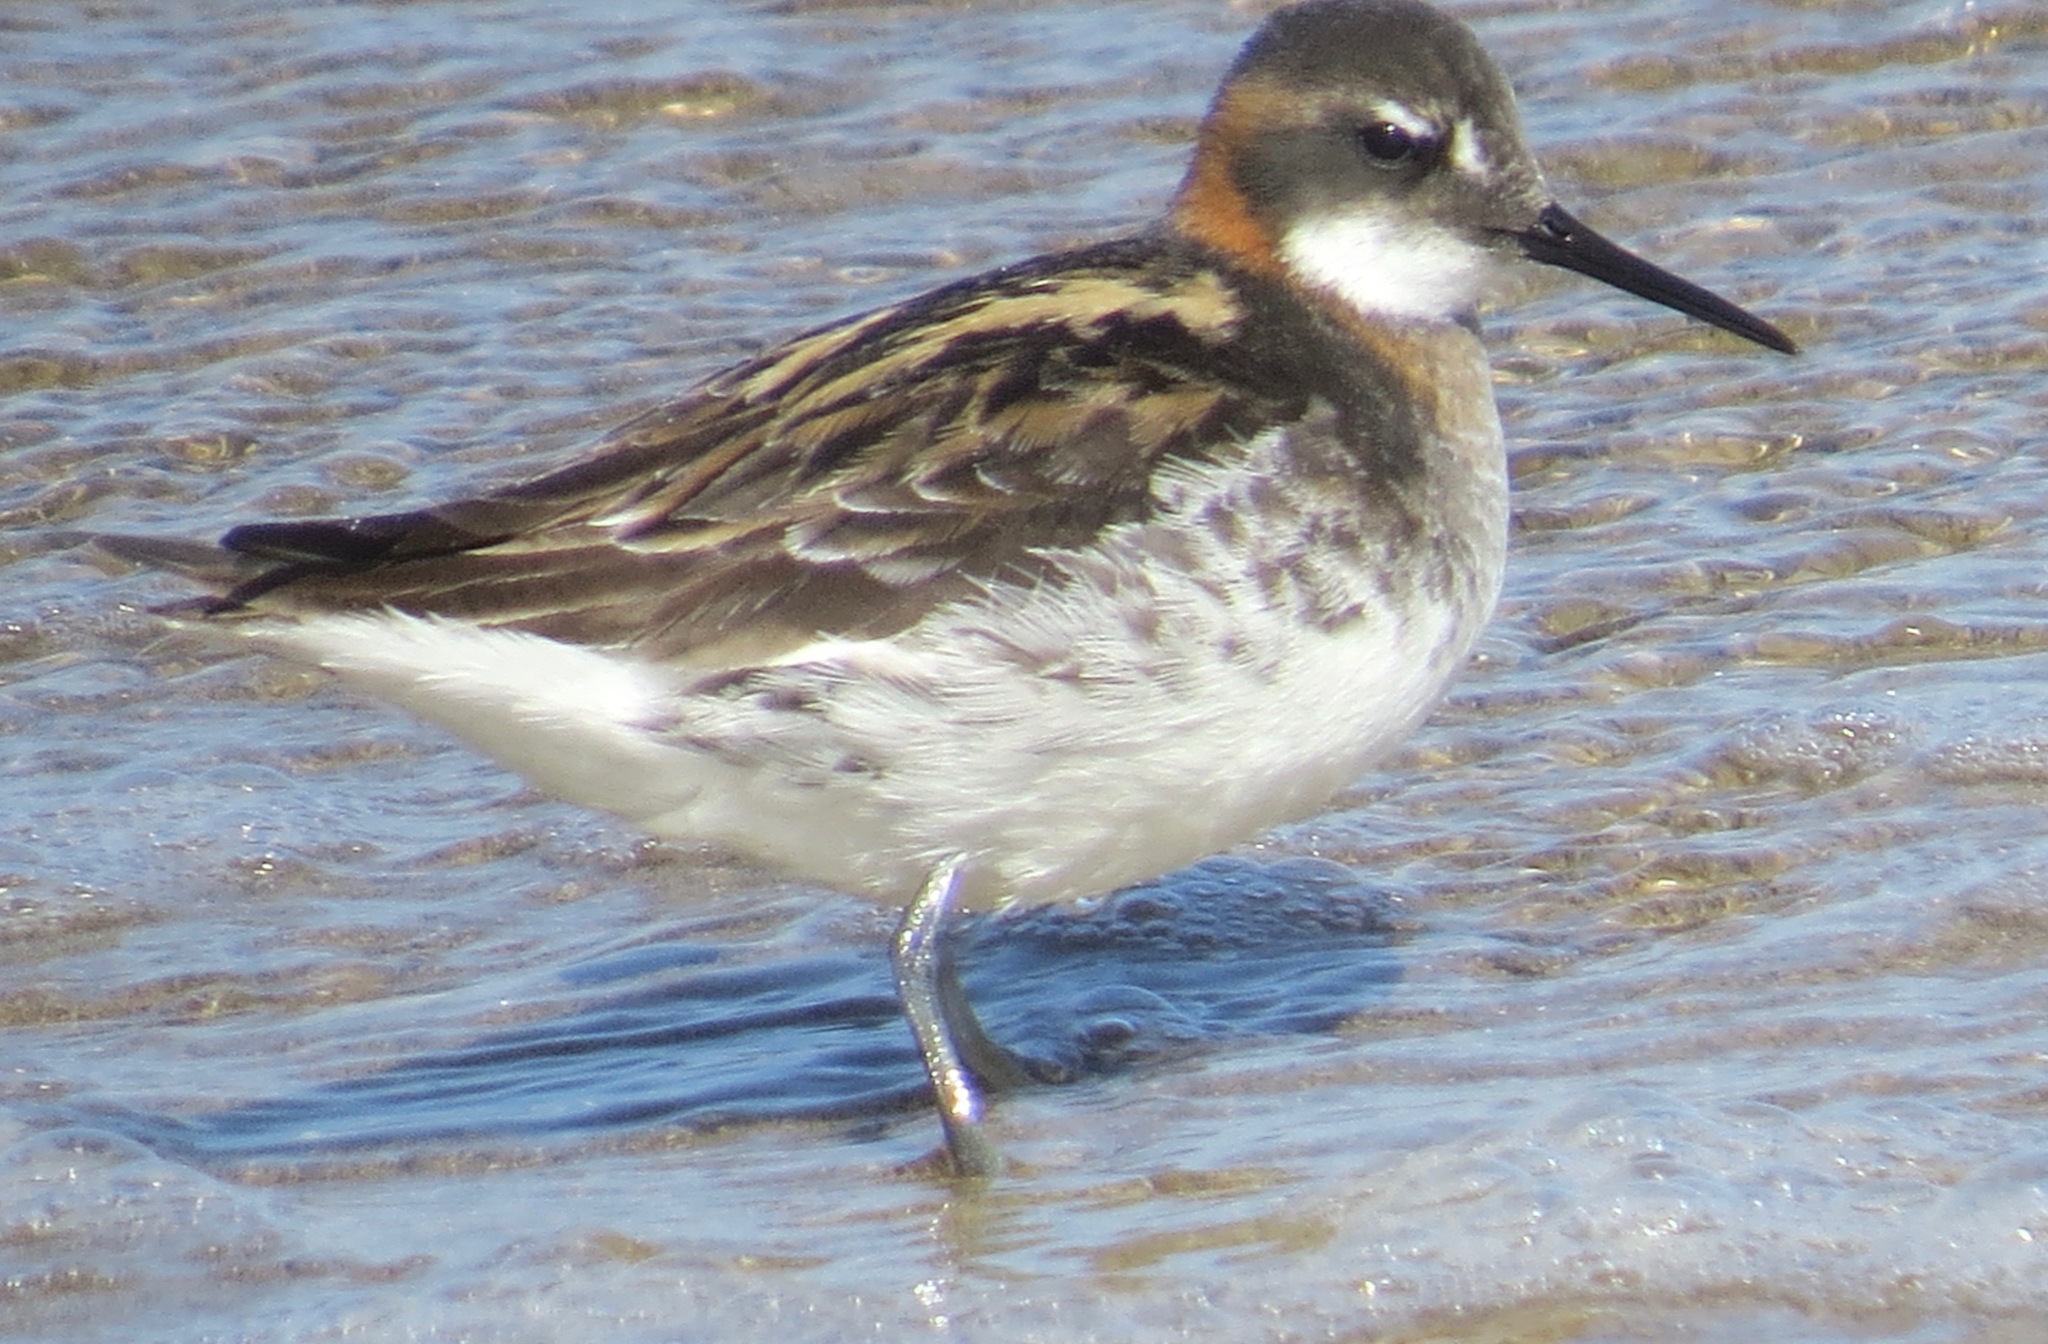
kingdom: Animalia
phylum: Chordata
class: Aves
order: Charadriiformes
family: Scolopacidae
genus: Phalaropus
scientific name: Phalaropus lobatus
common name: Red-necked phalarope
